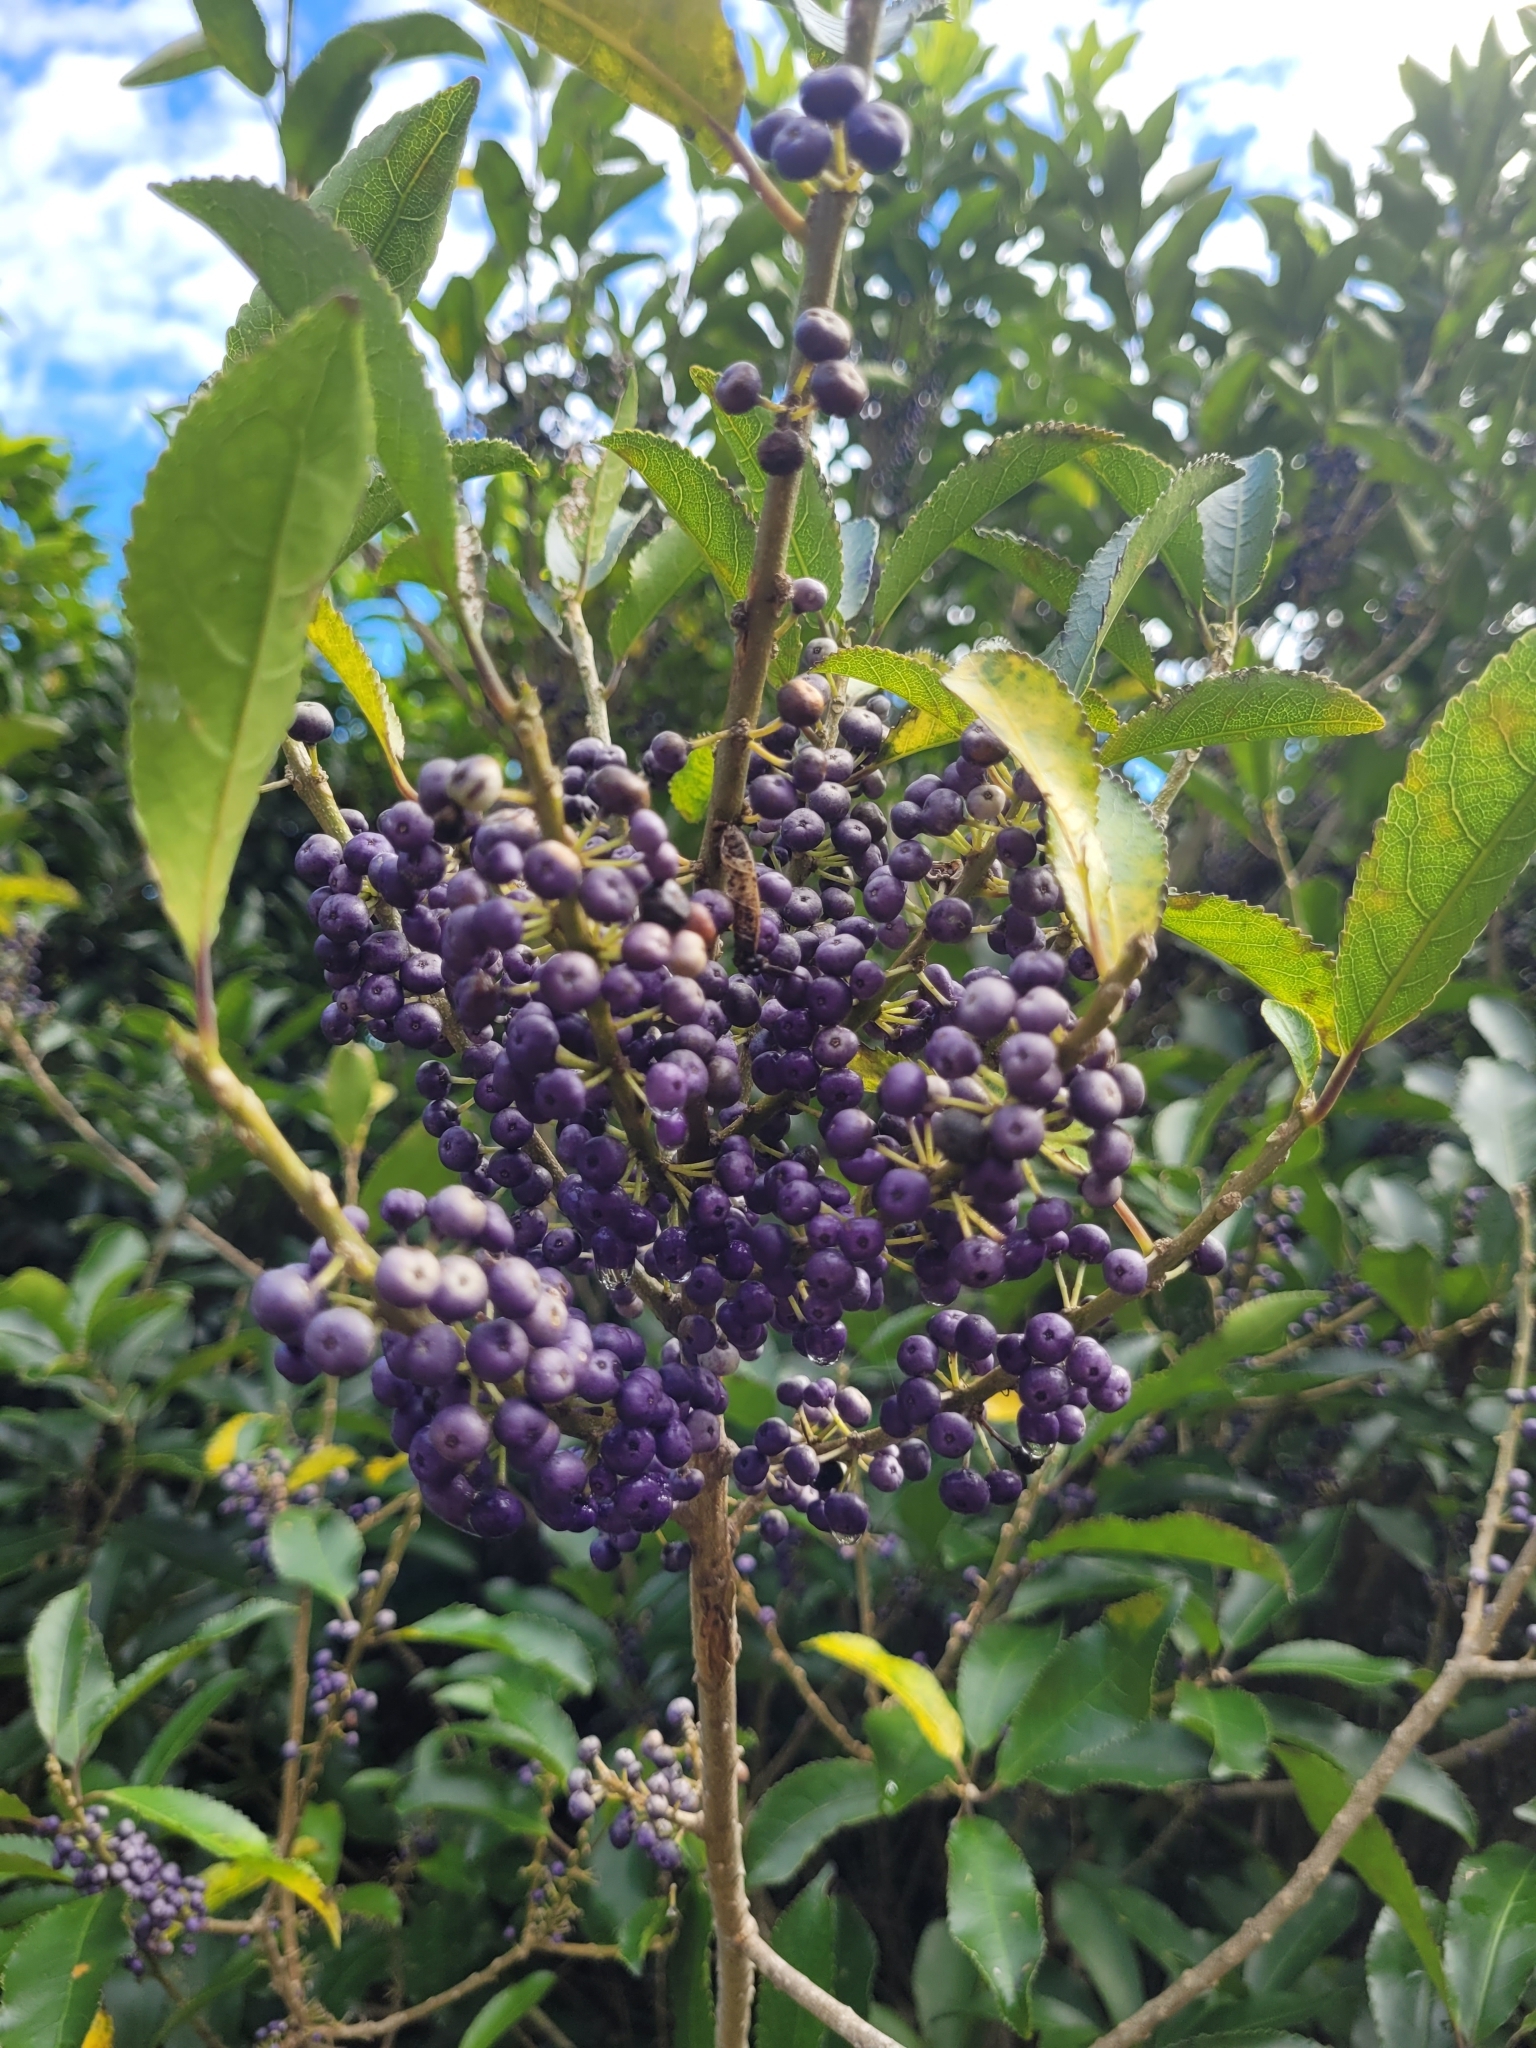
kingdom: Plantae
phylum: Tracheophyta
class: Magnoliopsida
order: Malpighiales
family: Violaceae
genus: Melicytus
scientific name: Melicytus ramiflorus
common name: Mahoe
